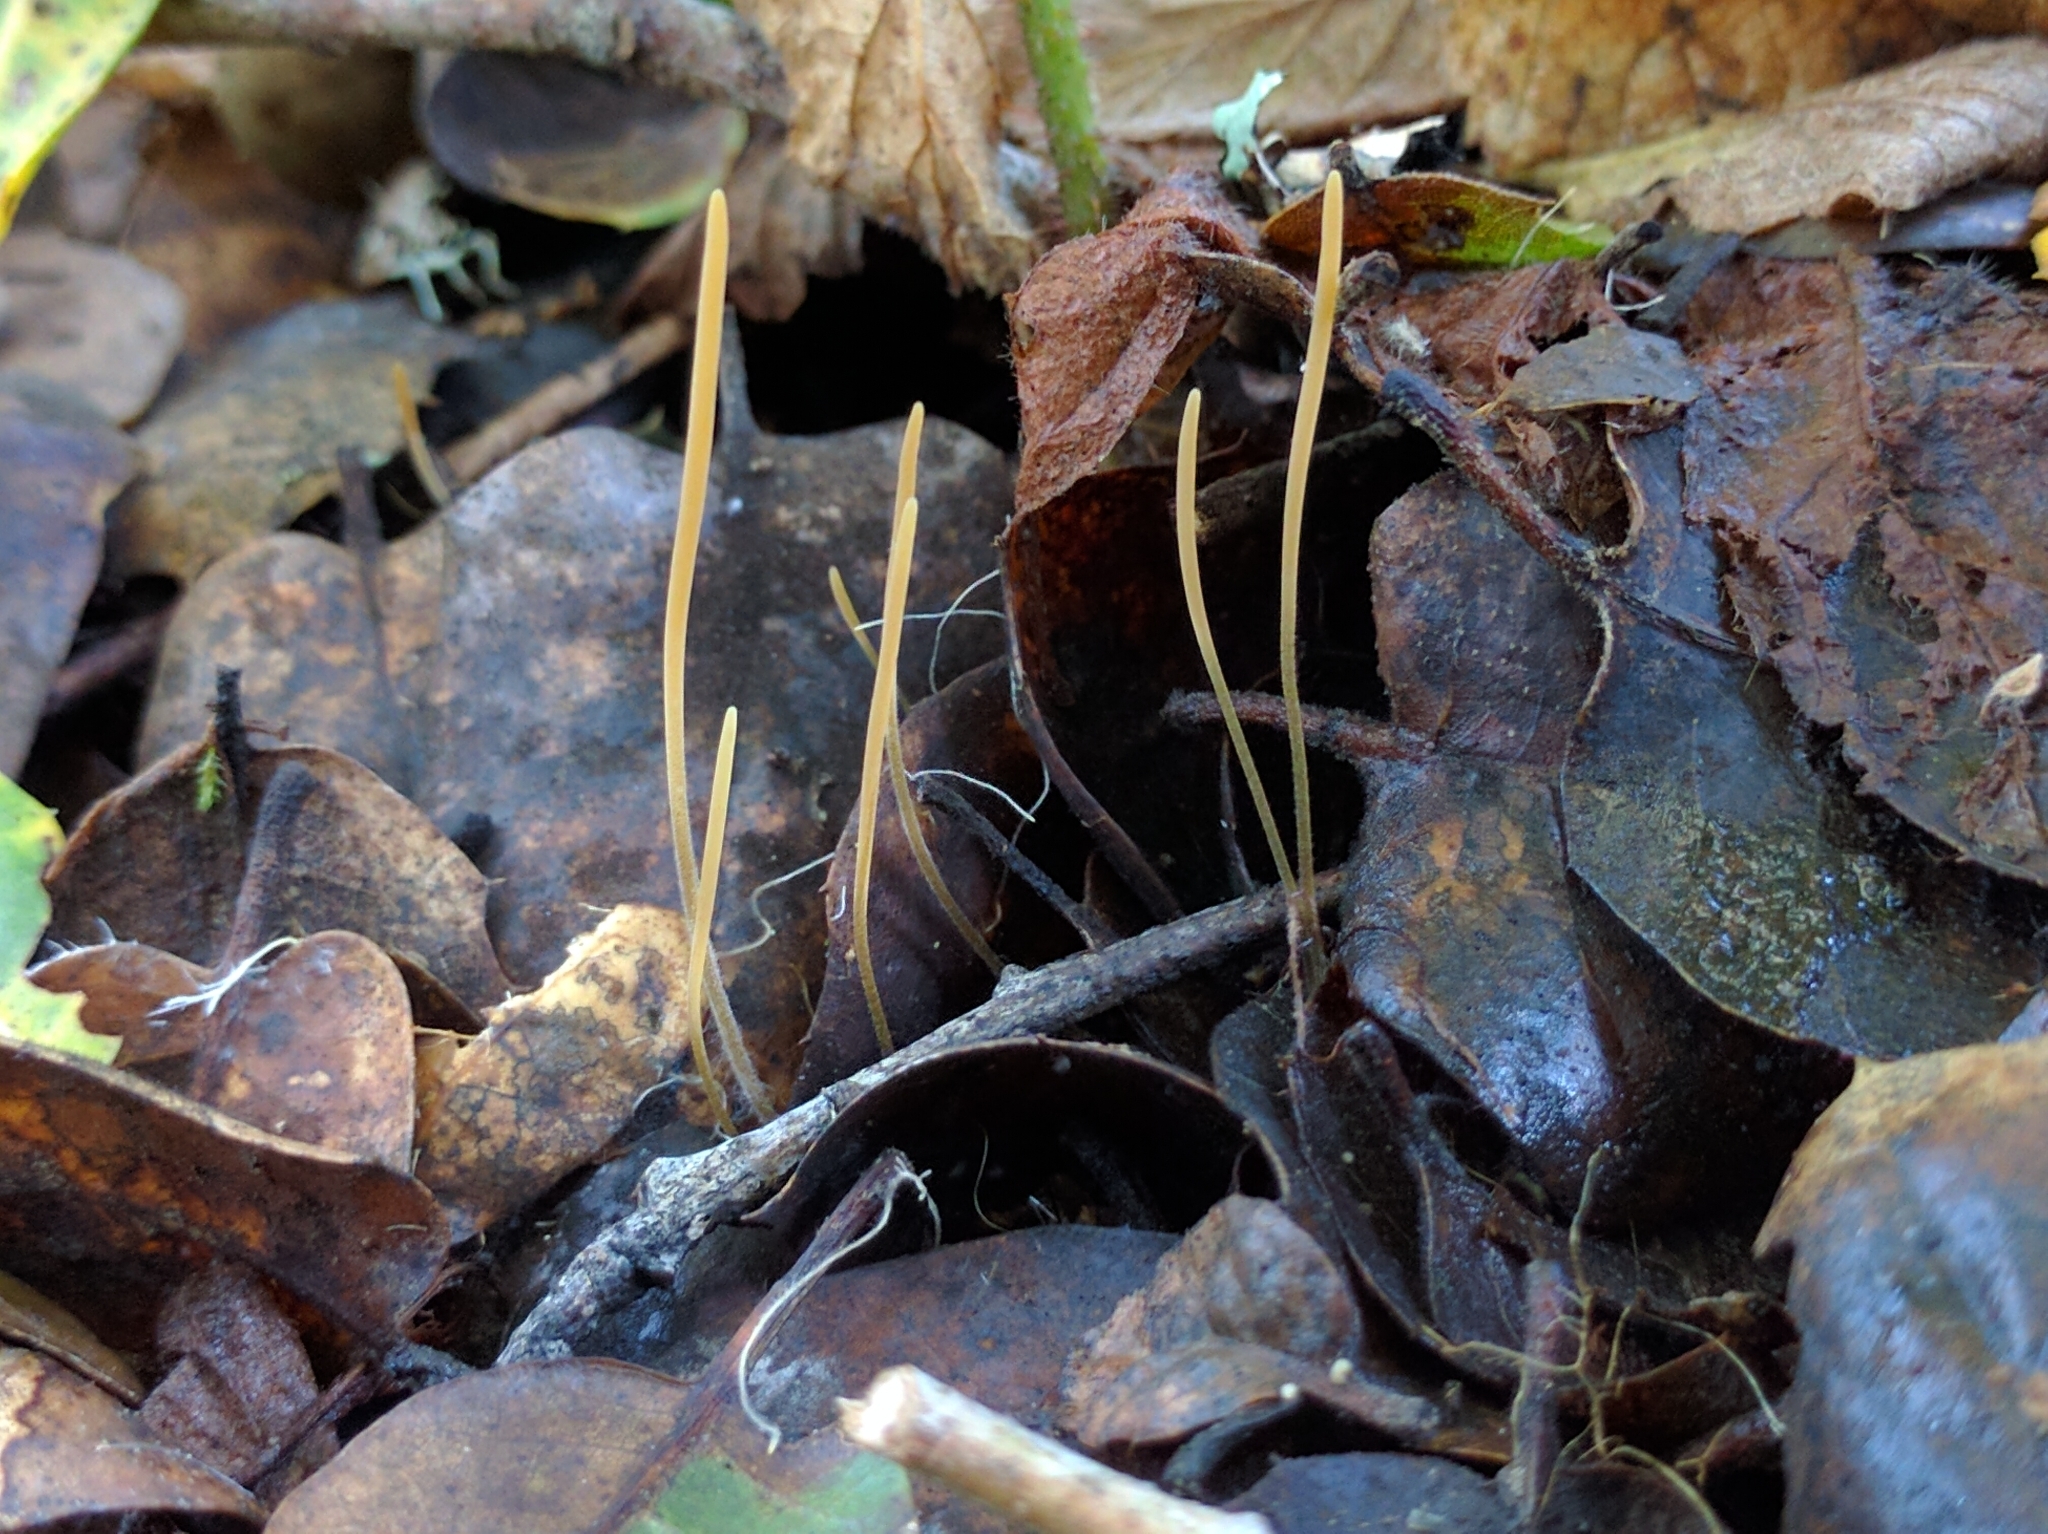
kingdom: Fungi
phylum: Basidiomycota
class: Agaricomycetes
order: Agaricales
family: Typhulaceae
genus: Typhula
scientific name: Typhula juncea
